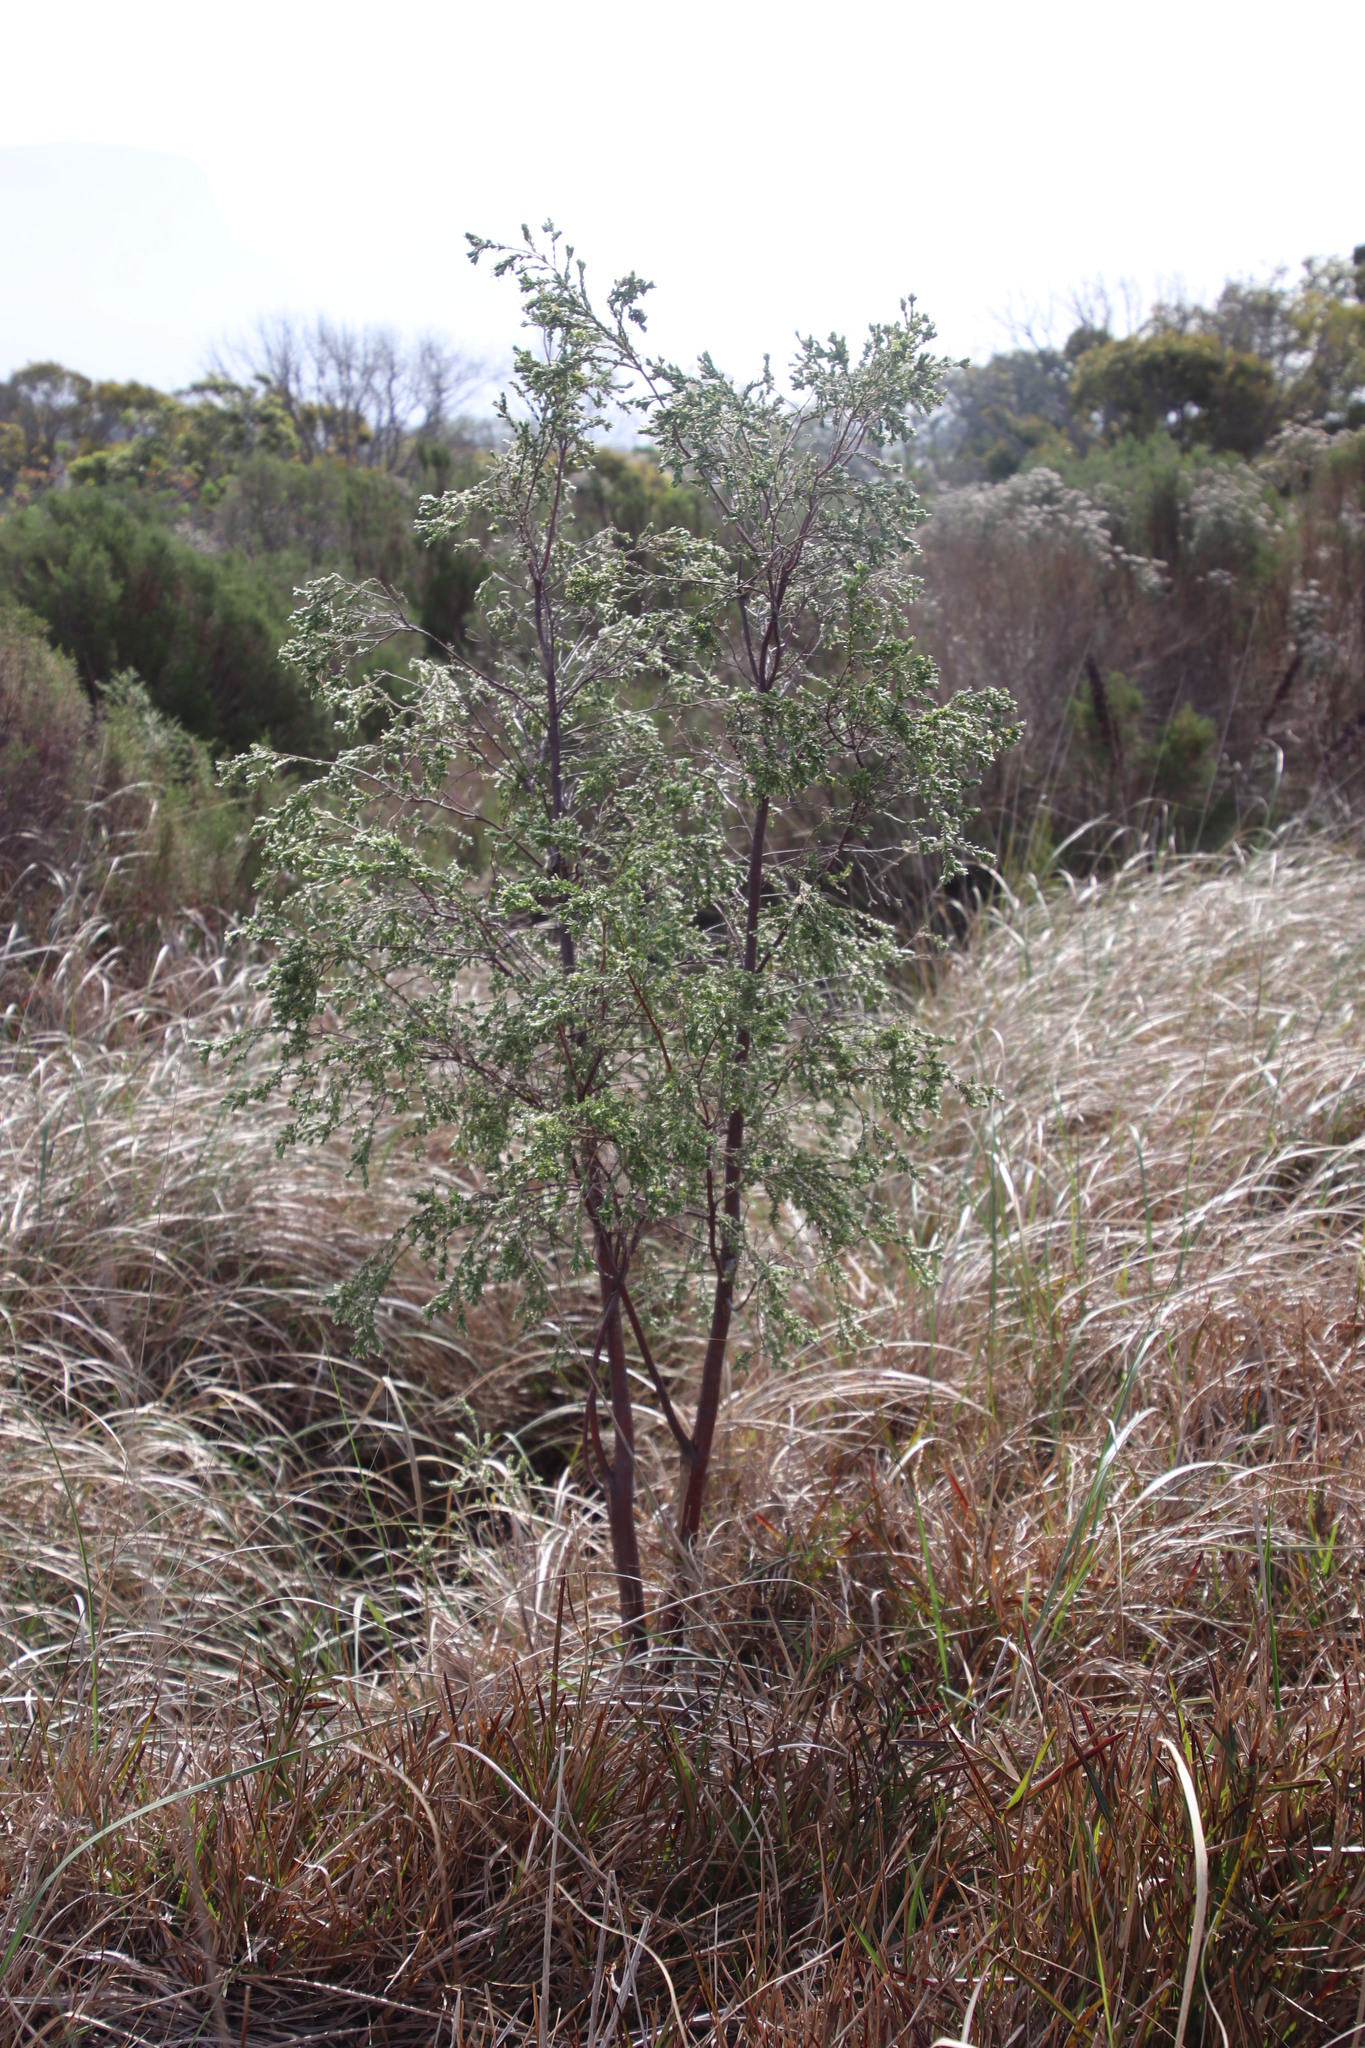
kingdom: Plantae
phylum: Tracheophyta
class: Magnoliopsida
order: Malvales
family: Thymelaeaceae
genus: Gnidia
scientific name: Gnidia sericea
